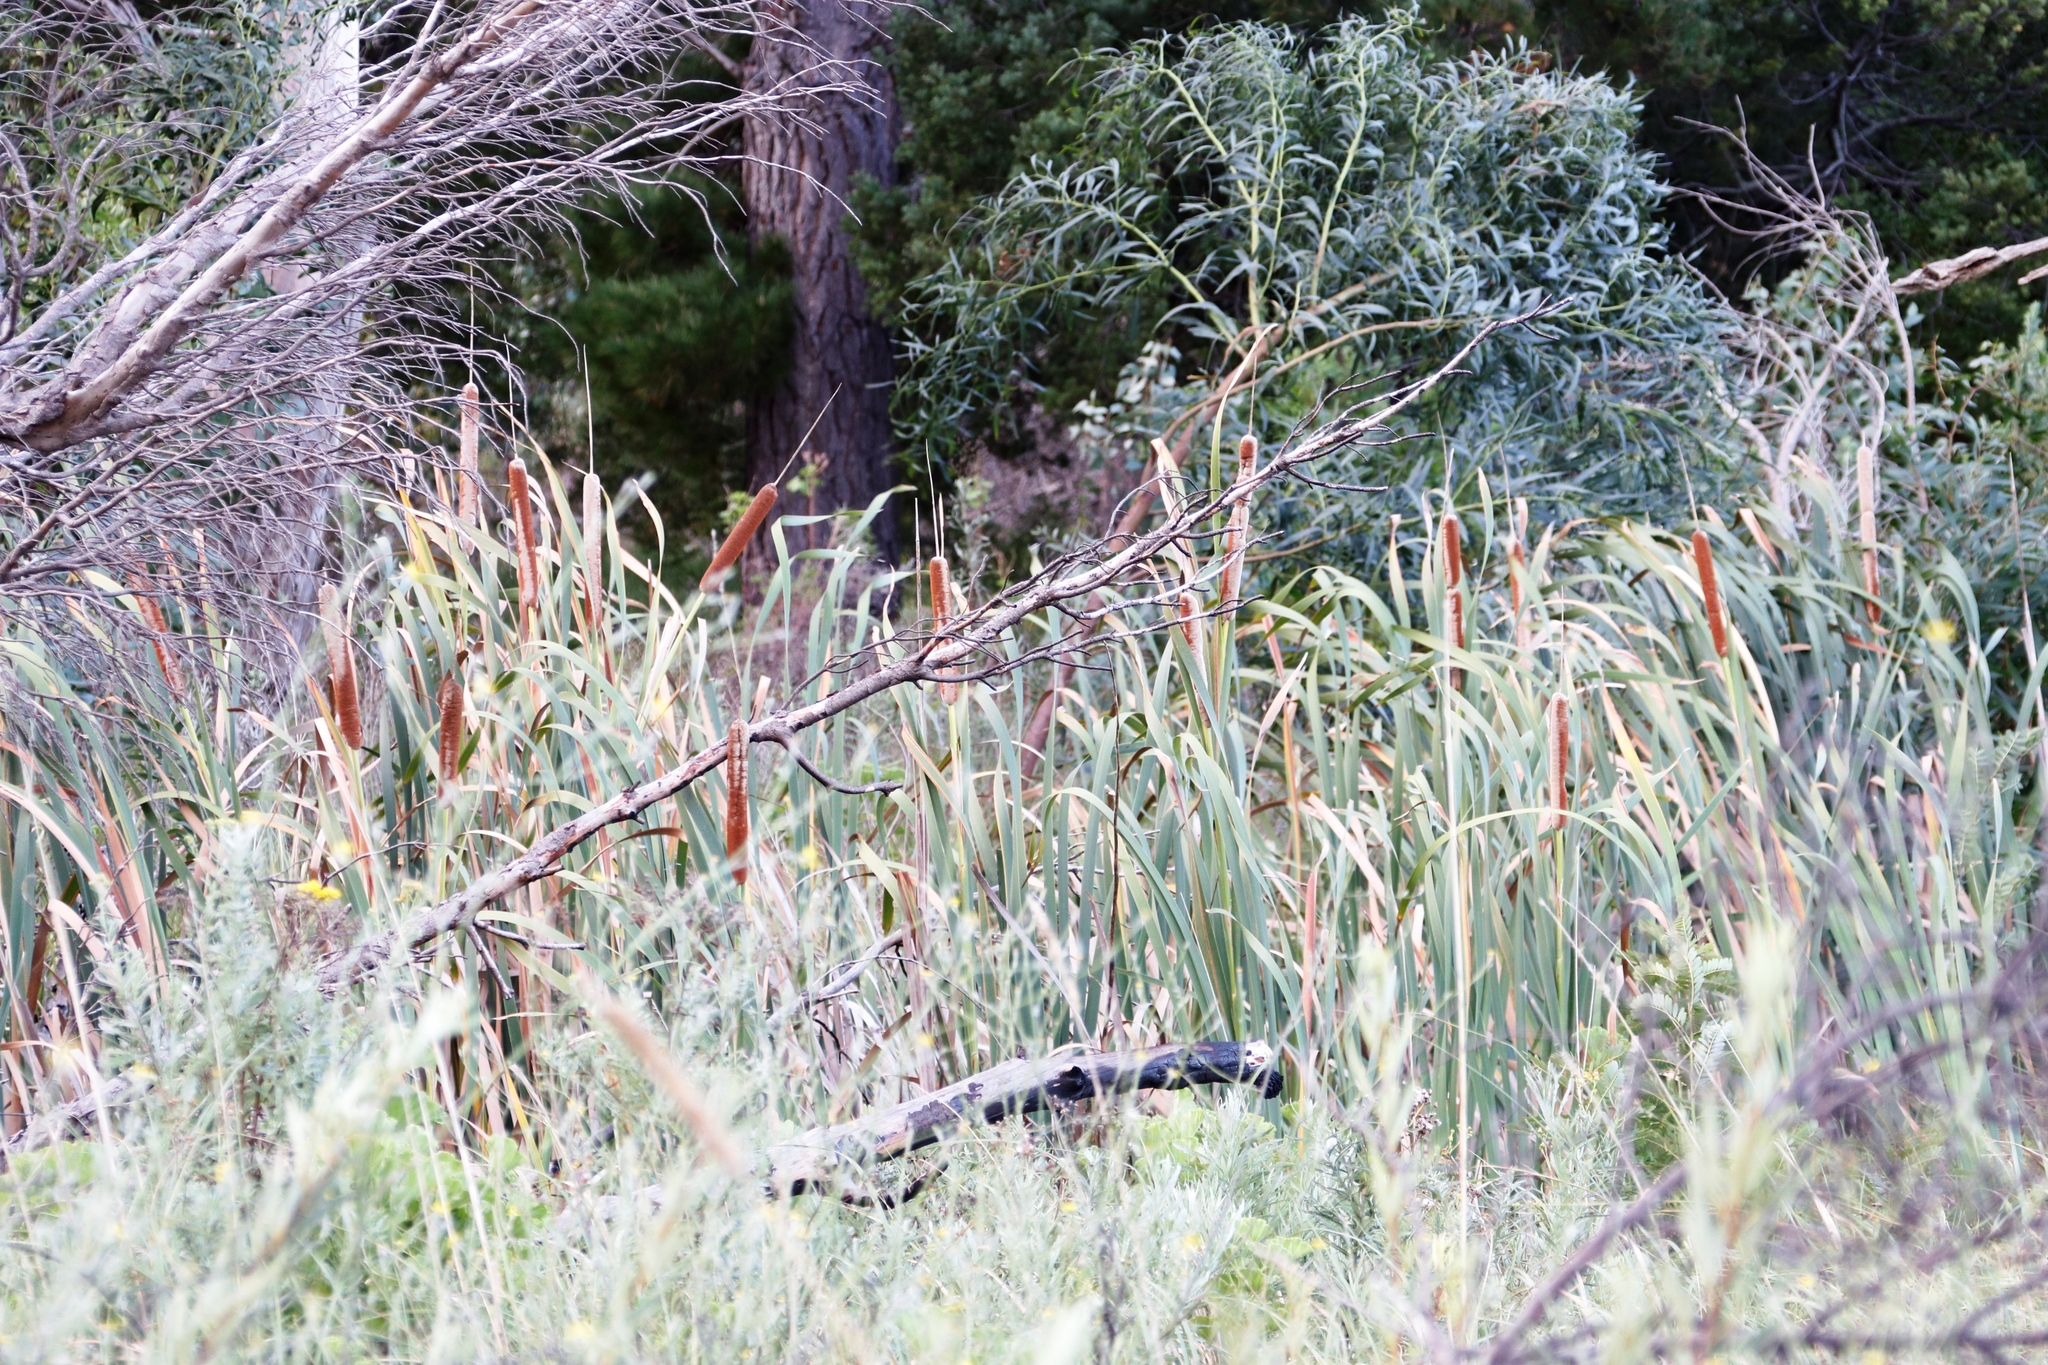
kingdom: Plantae
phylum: Tracheophyta
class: Liliopsida
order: Poales
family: Typhaceae
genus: Typha
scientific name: Typha capensis
